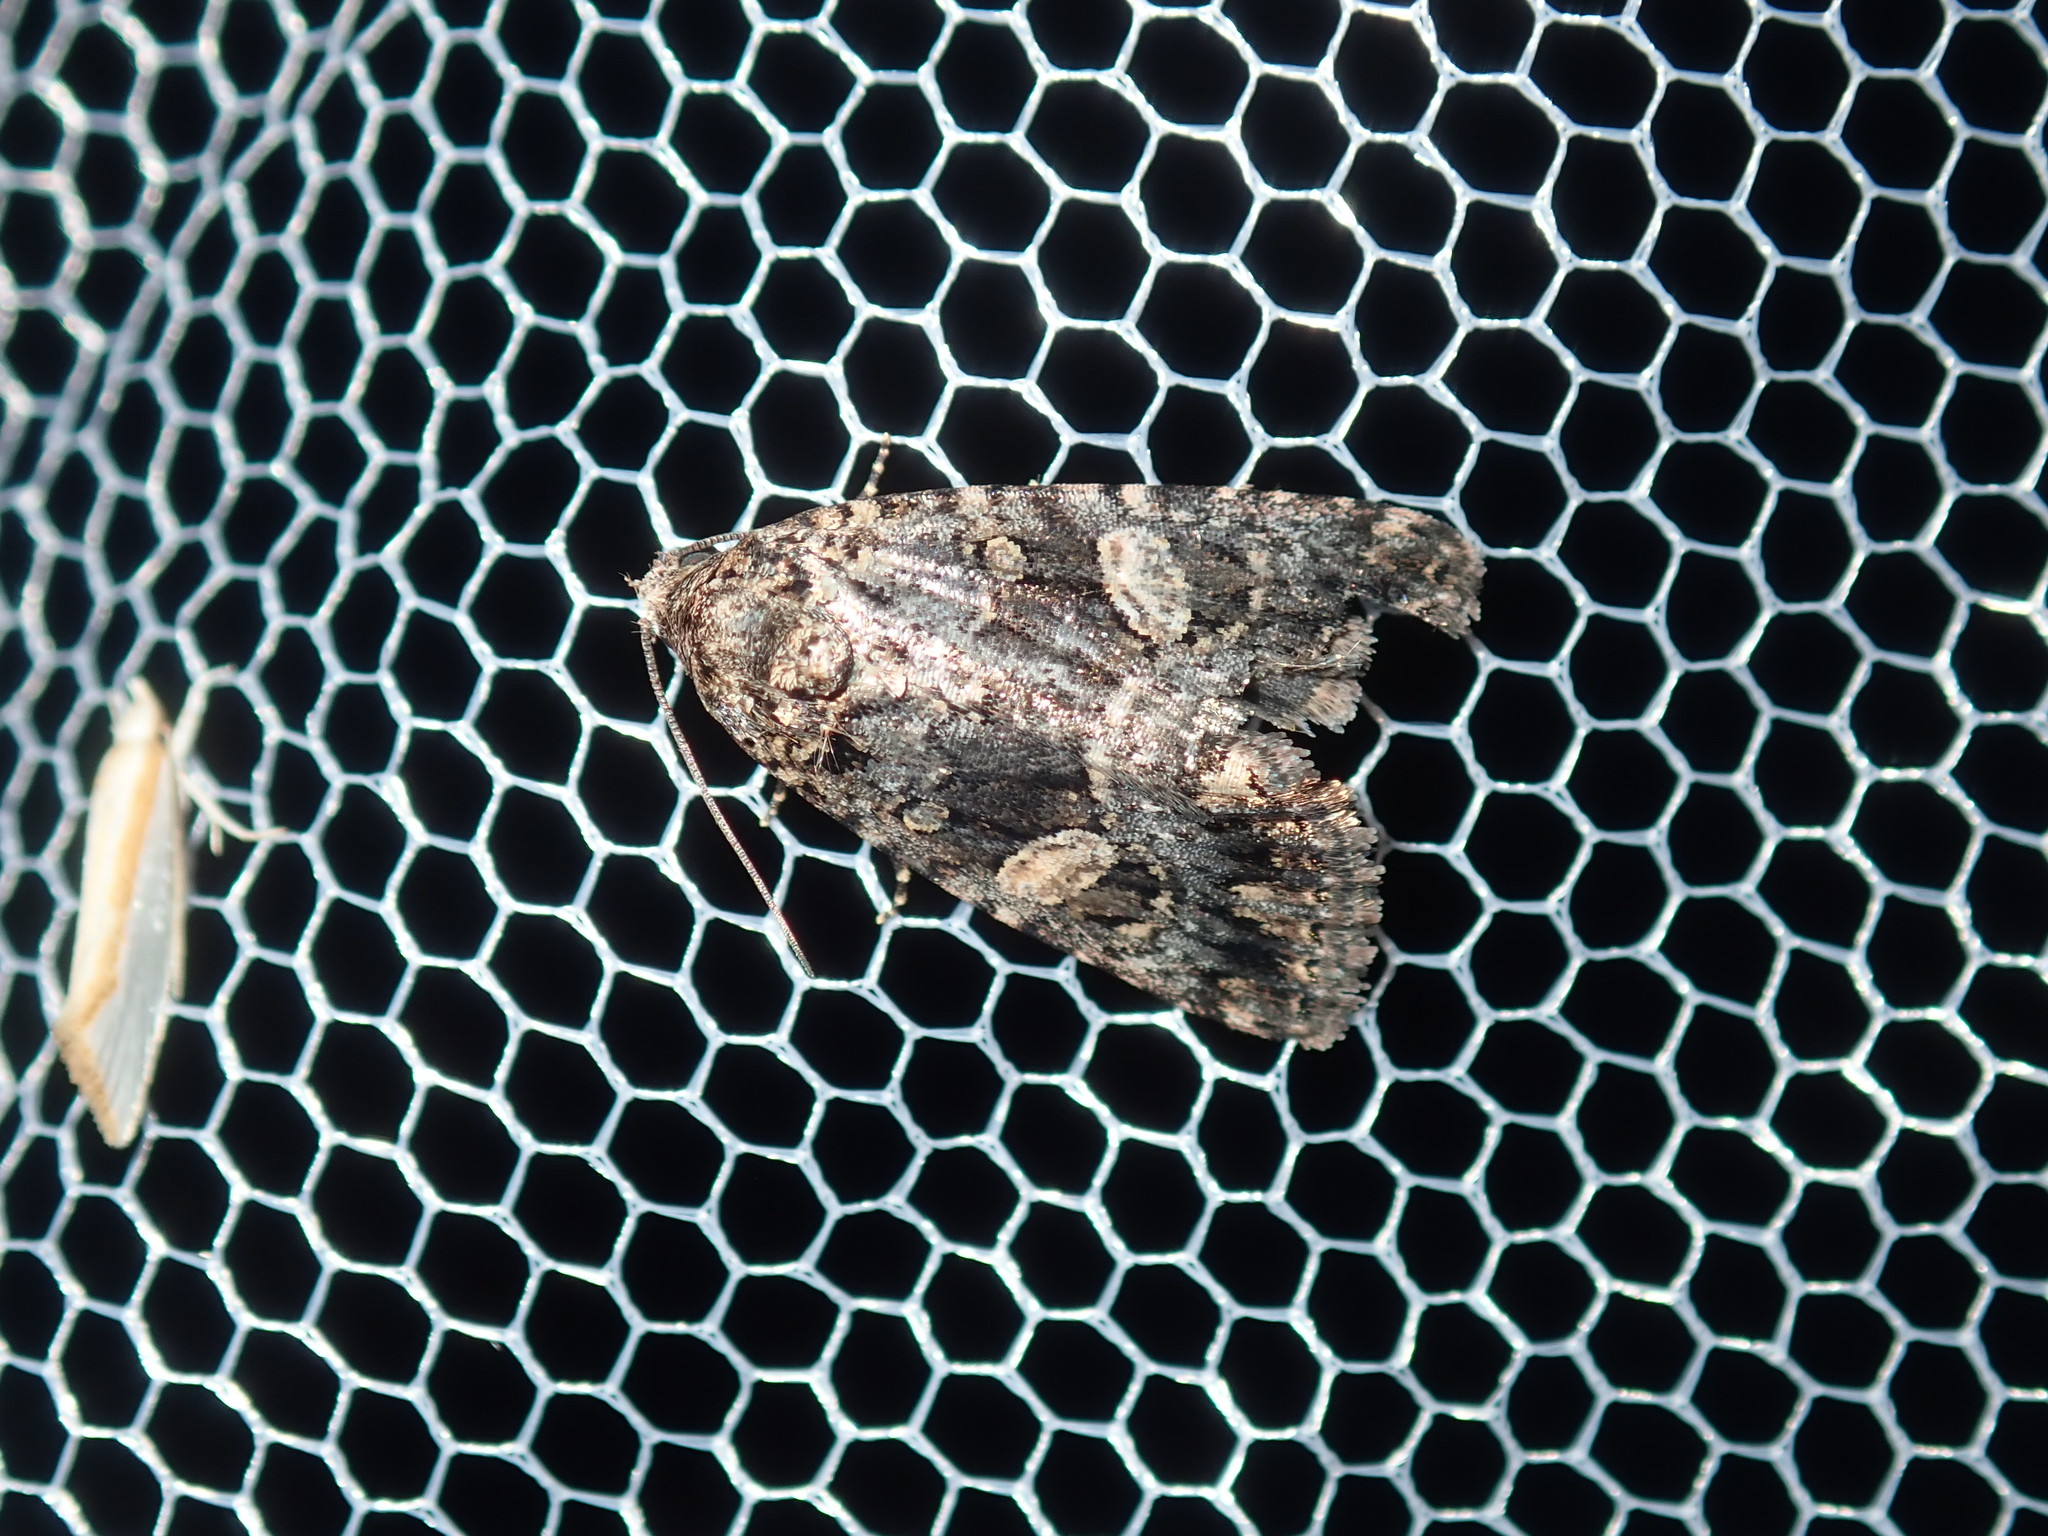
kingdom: Animalia
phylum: Arthropoda
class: Insecta
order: Lepidoptera
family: Noctuidae
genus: Condica
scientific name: Condica
